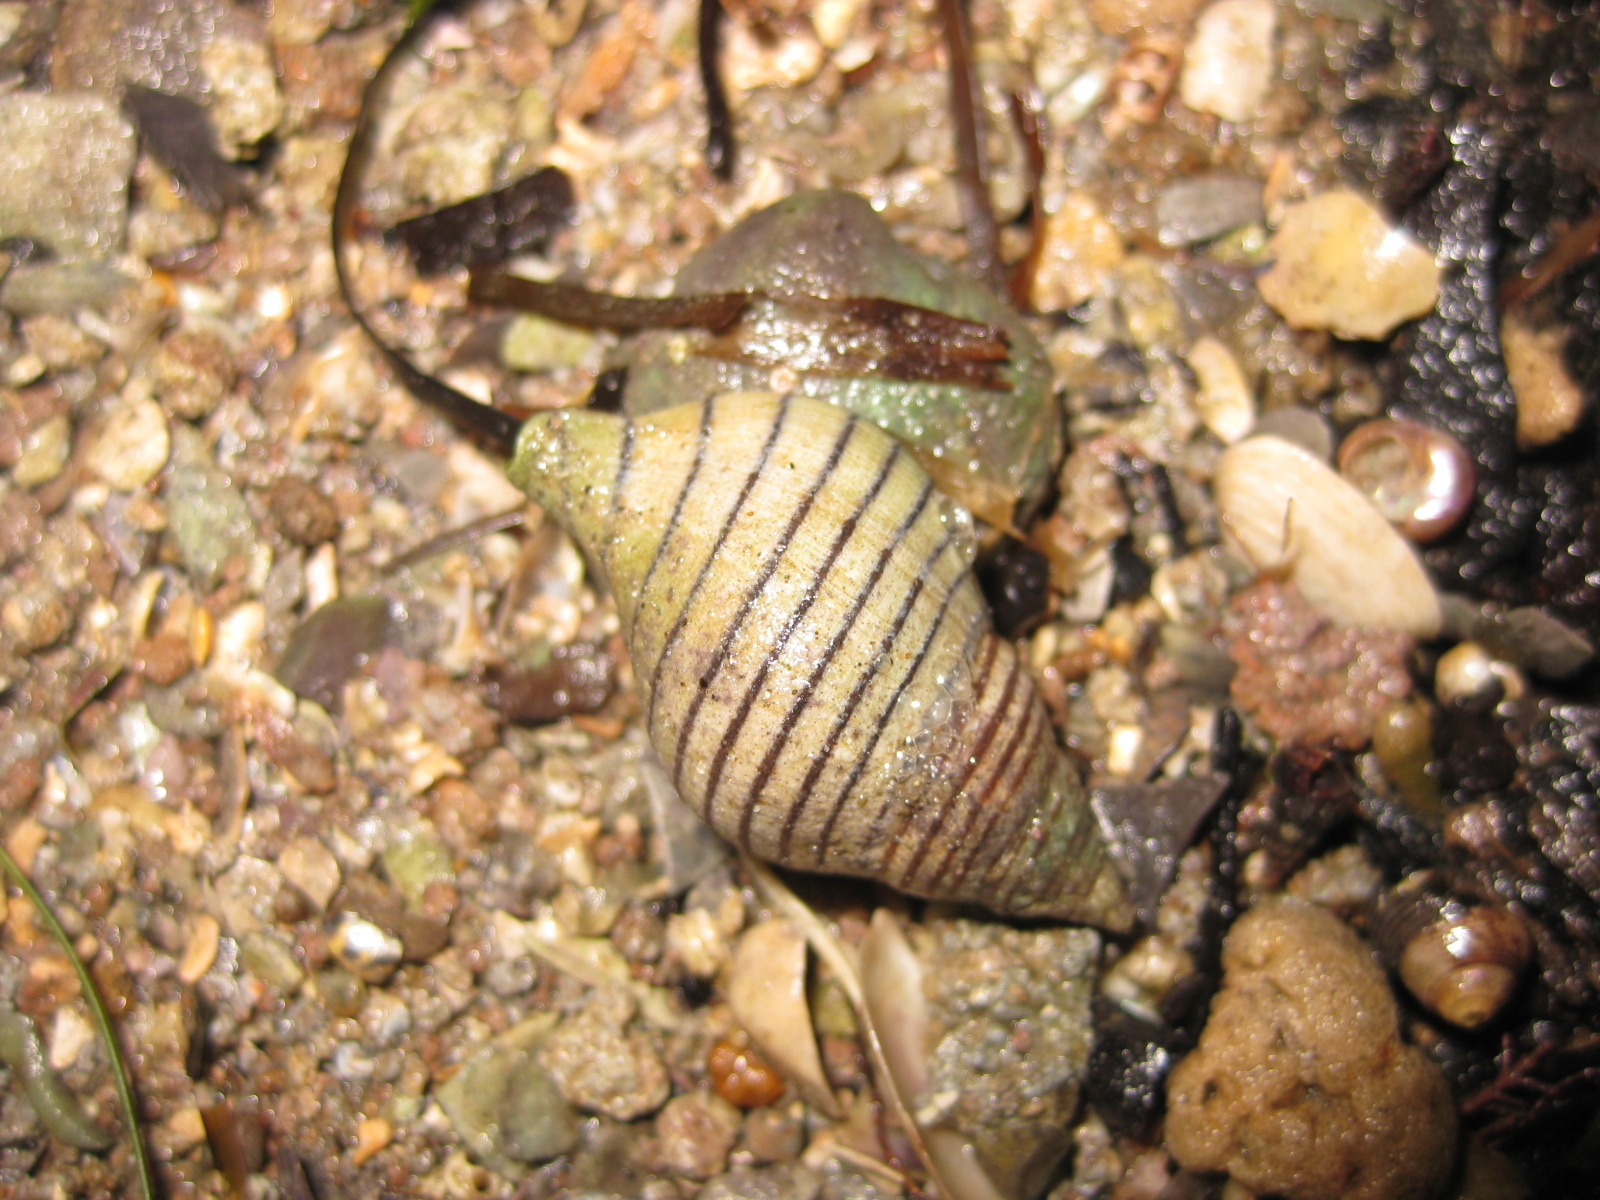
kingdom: Animalia
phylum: Mollusca
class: Gastropoda
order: Neogastropoda
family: Tudiclidae
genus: Buccinulum
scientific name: Buccinulum linea
